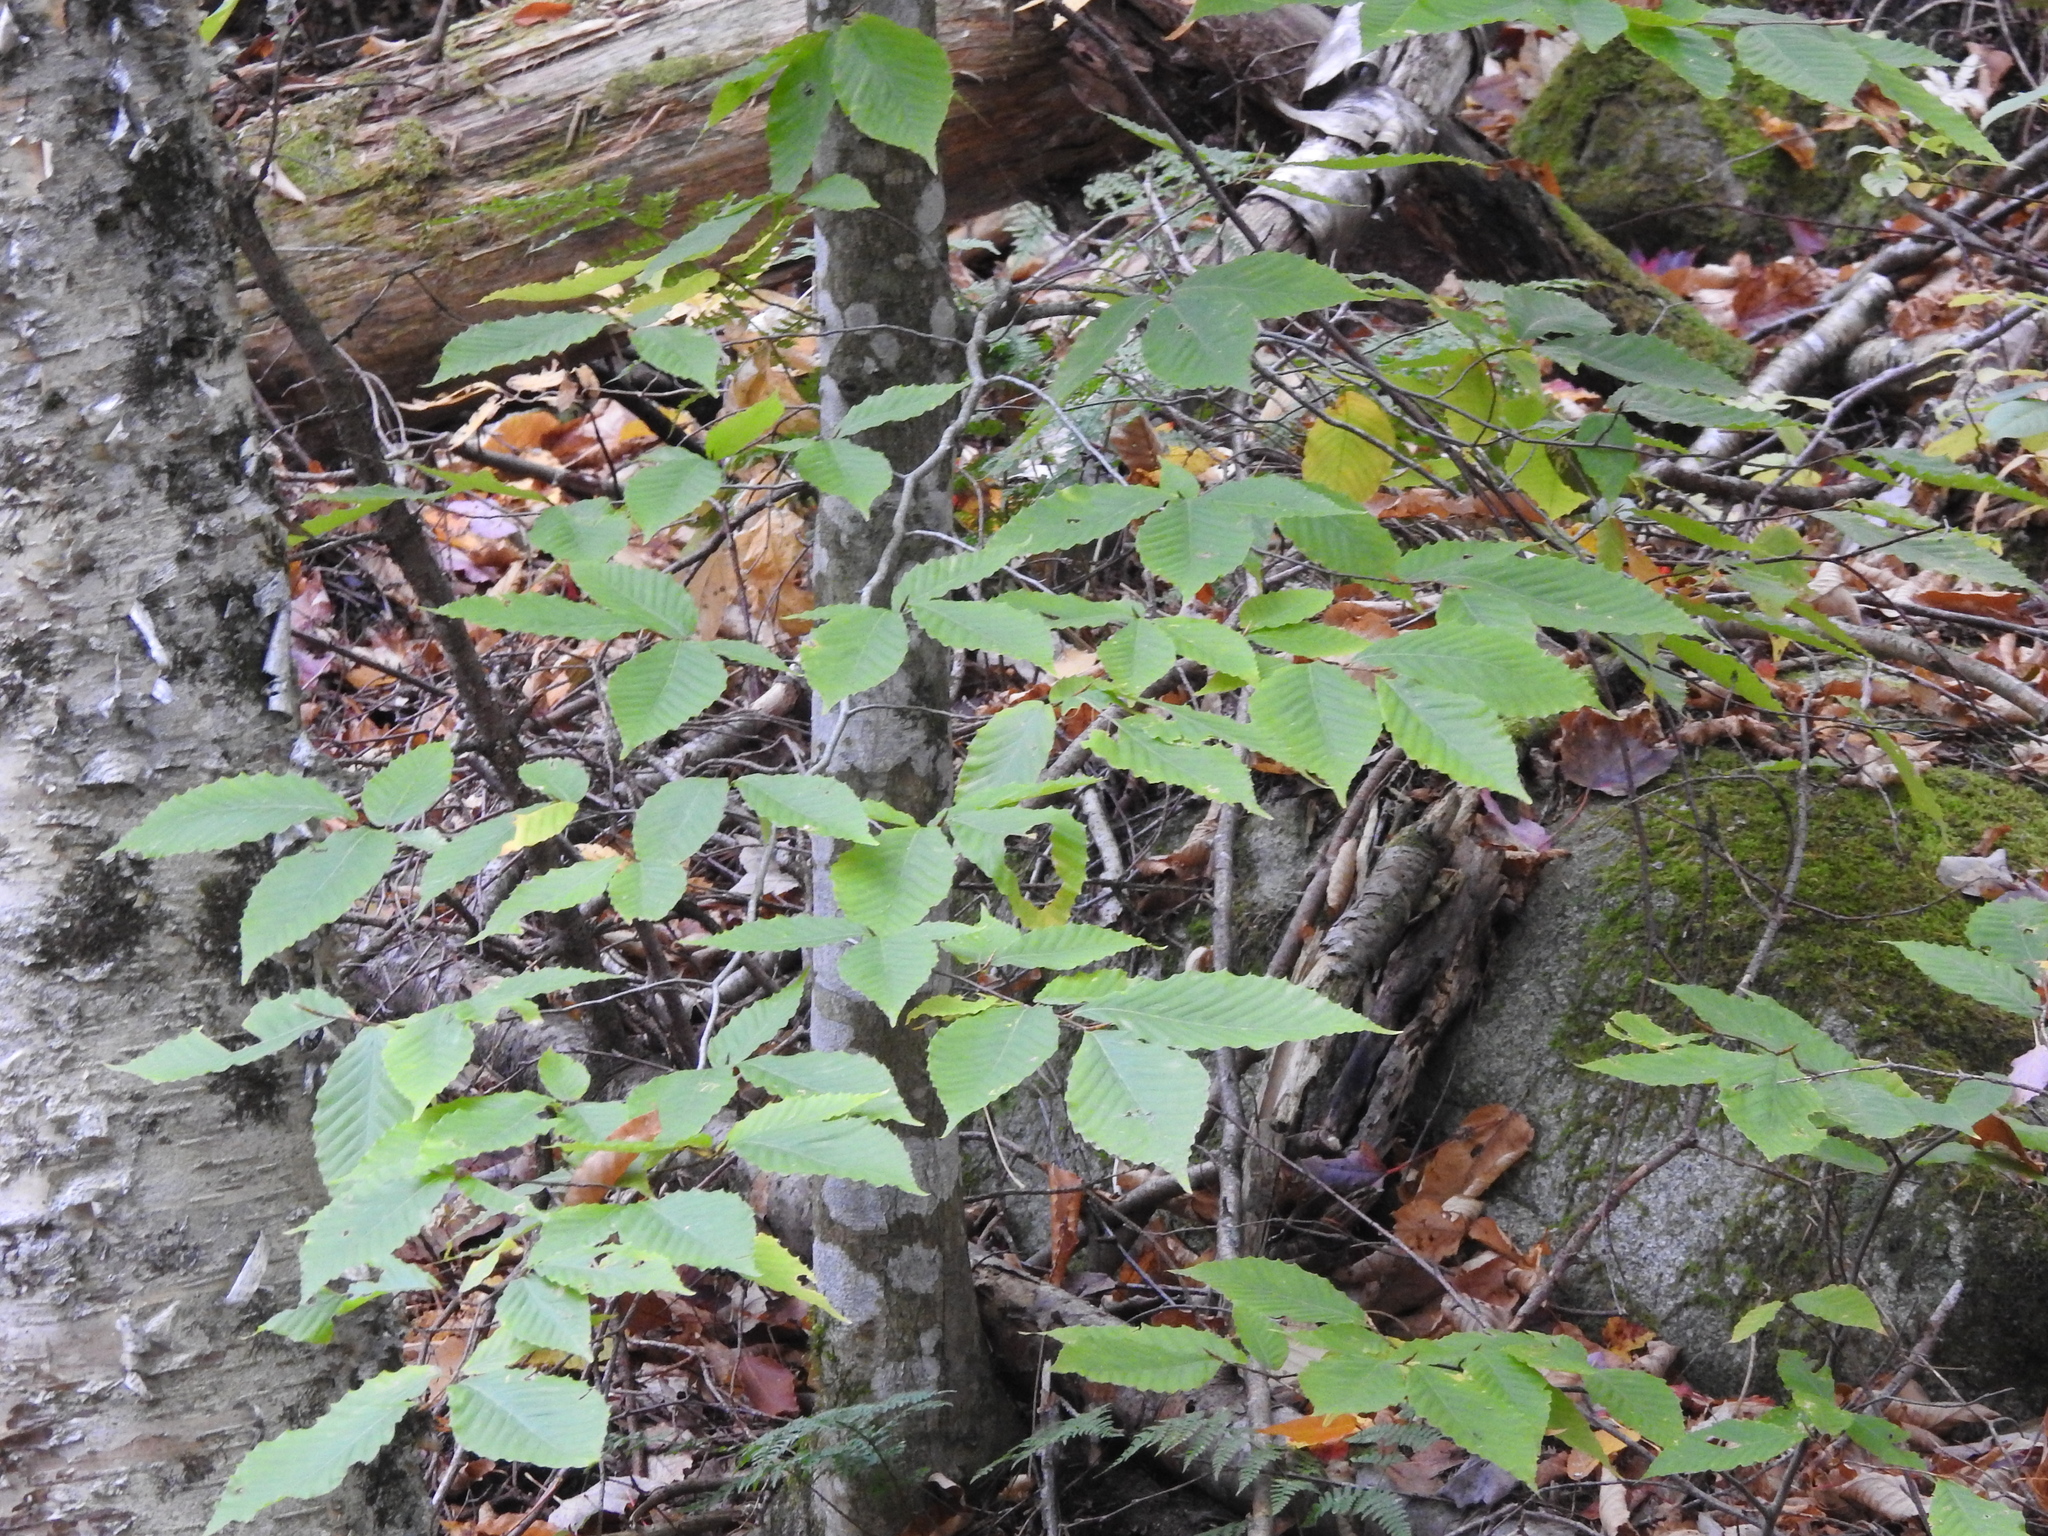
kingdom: Plantae
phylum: Tracheophyta
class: Magnoliopsida
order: Fagales
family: Fagaceae
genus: Fagus
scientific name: Fagus grandifolia
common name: American beech
